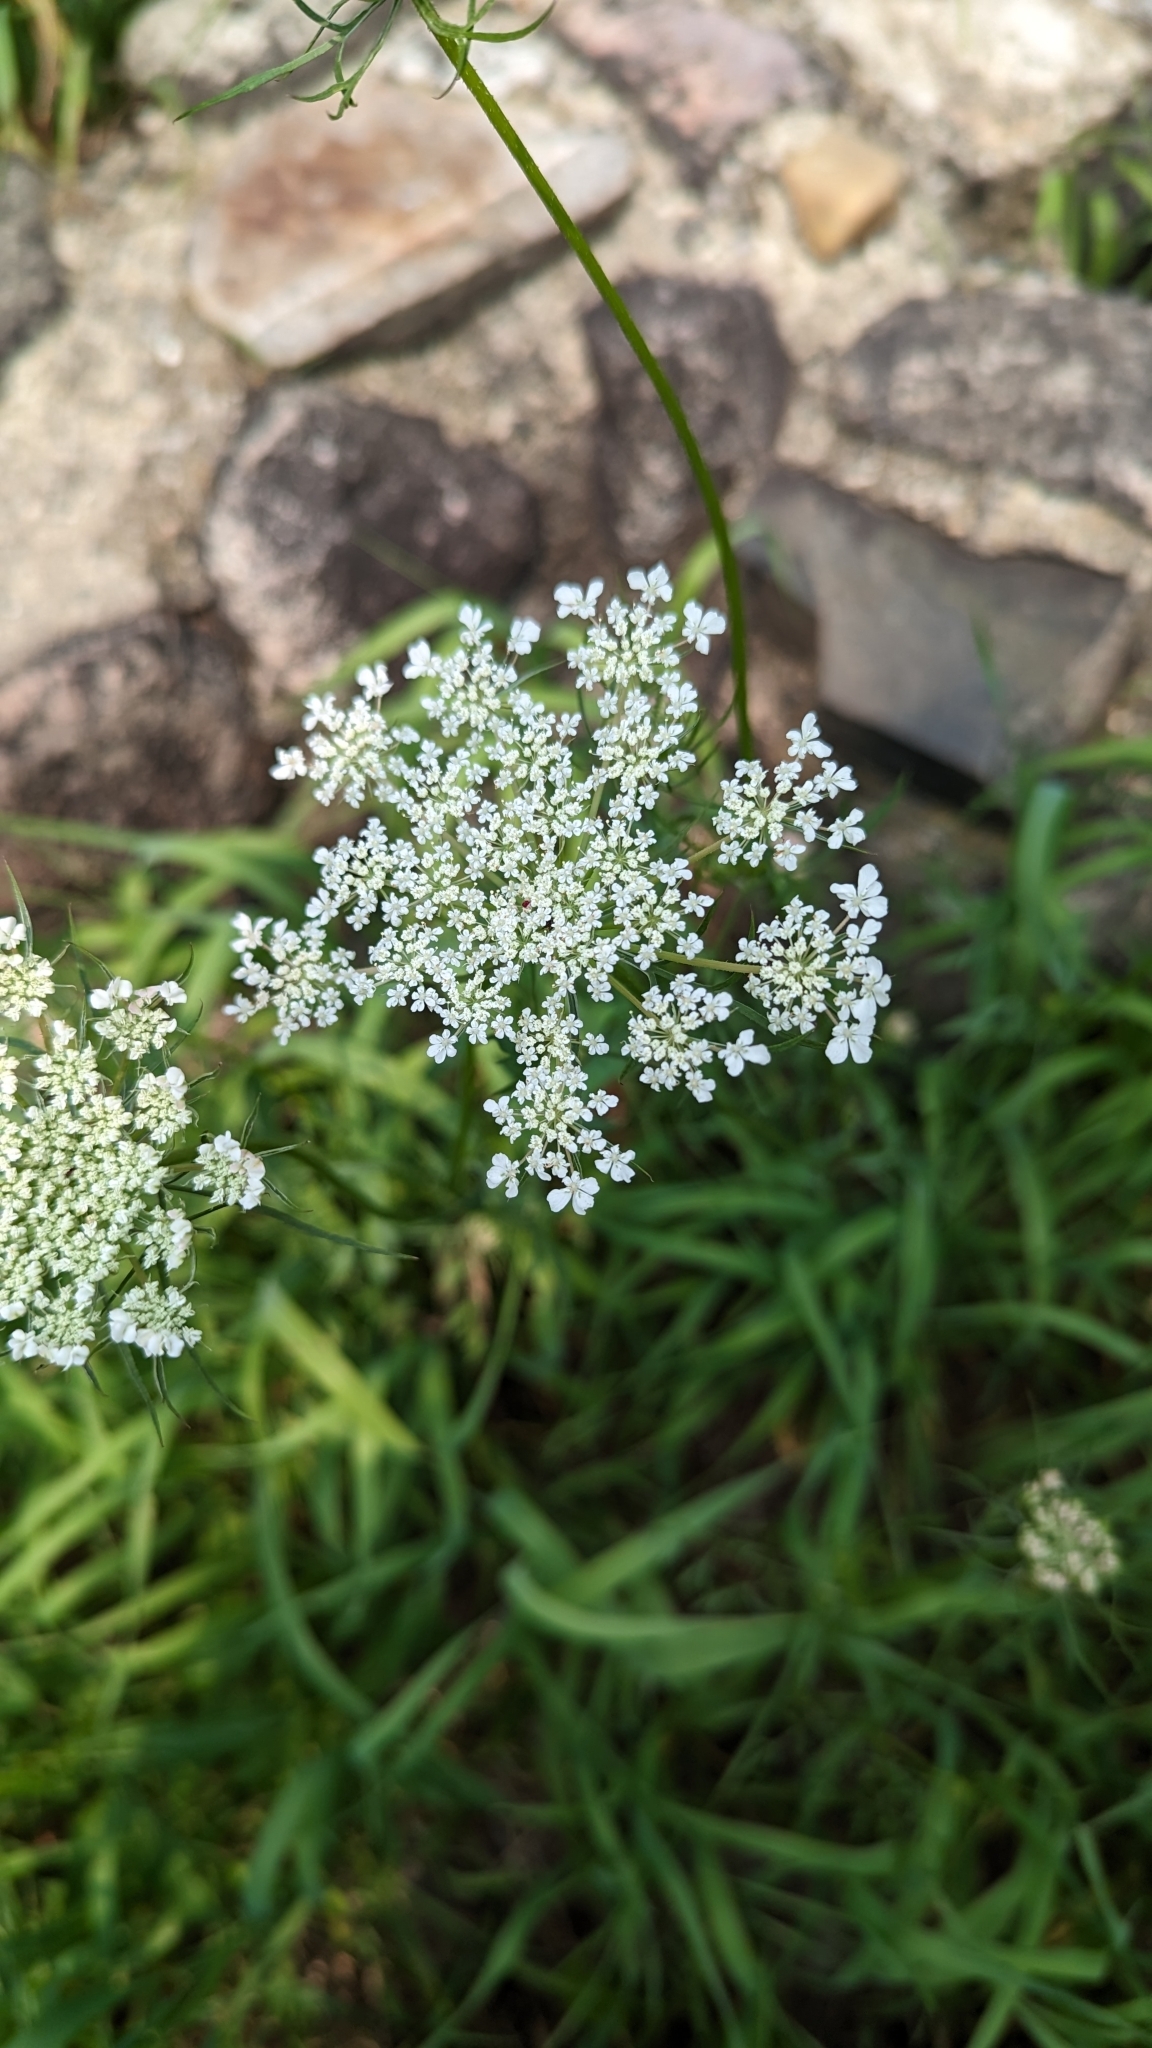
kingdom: Plantae
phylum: Tracheophyta
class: Magnoliopsida
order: Apiales
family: Apiaceae
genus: Daucus
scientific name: Daucus carota
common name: Wild carrot
